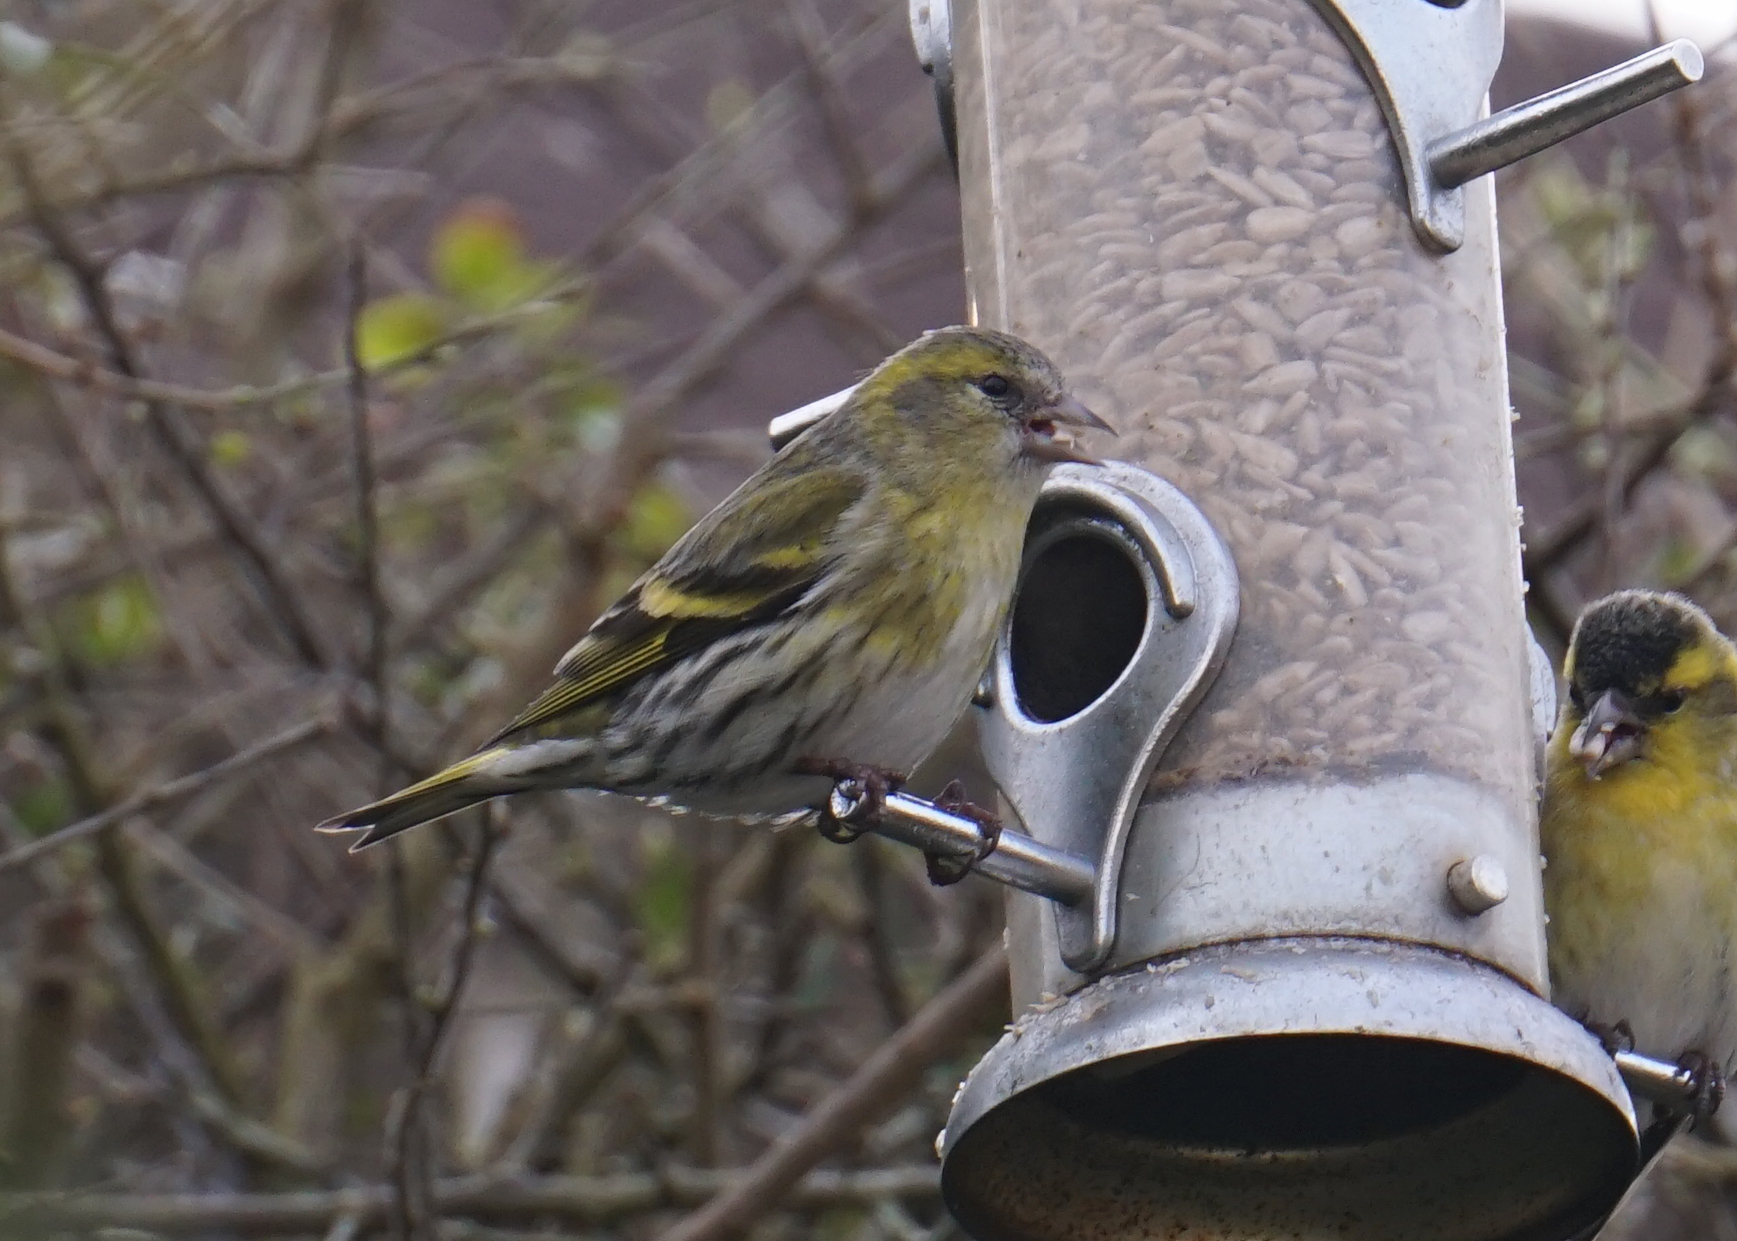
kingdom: Animalia
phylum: Chordata
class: Aves
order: Passeriformes
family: Fringillidae
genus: Spinus
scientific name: Spinus spinus
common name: Eurasian siskin
